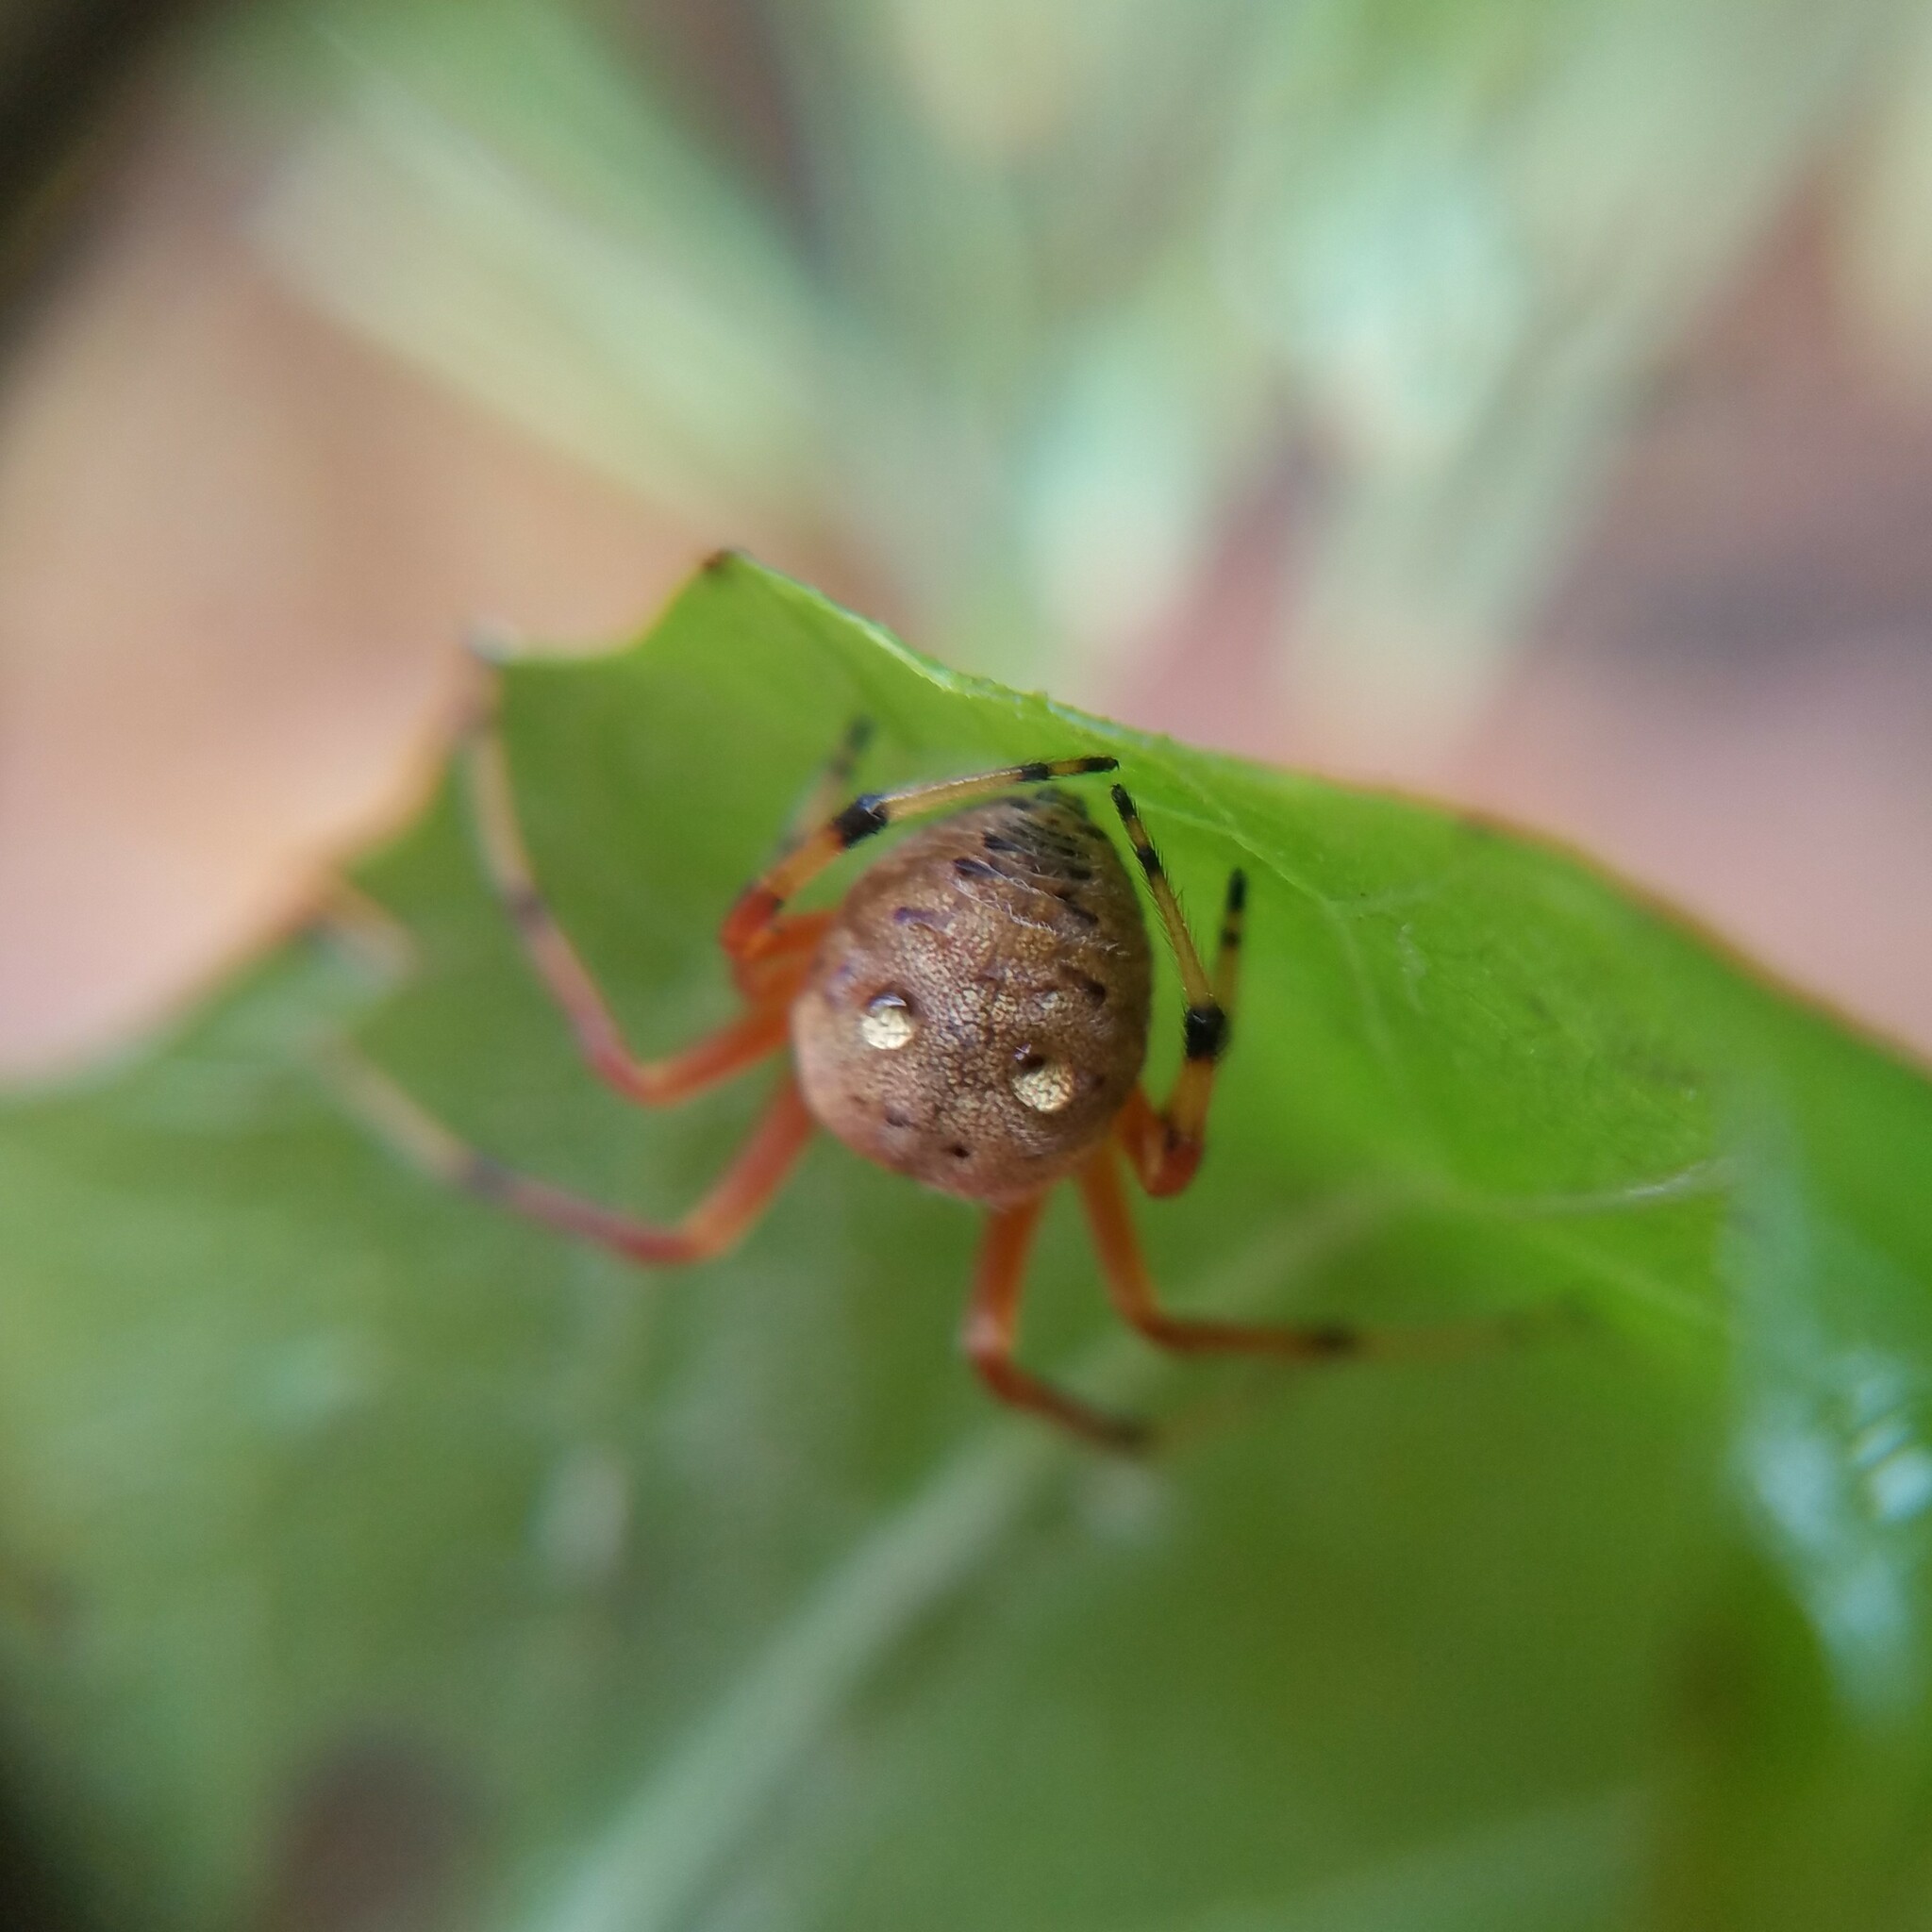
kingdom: Animalia
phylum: Arthropoda
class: Arachnida
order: Araneae
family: Araneidae
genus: Araneus
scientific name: Araneus thaddeus
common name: Lattice orbweaver
